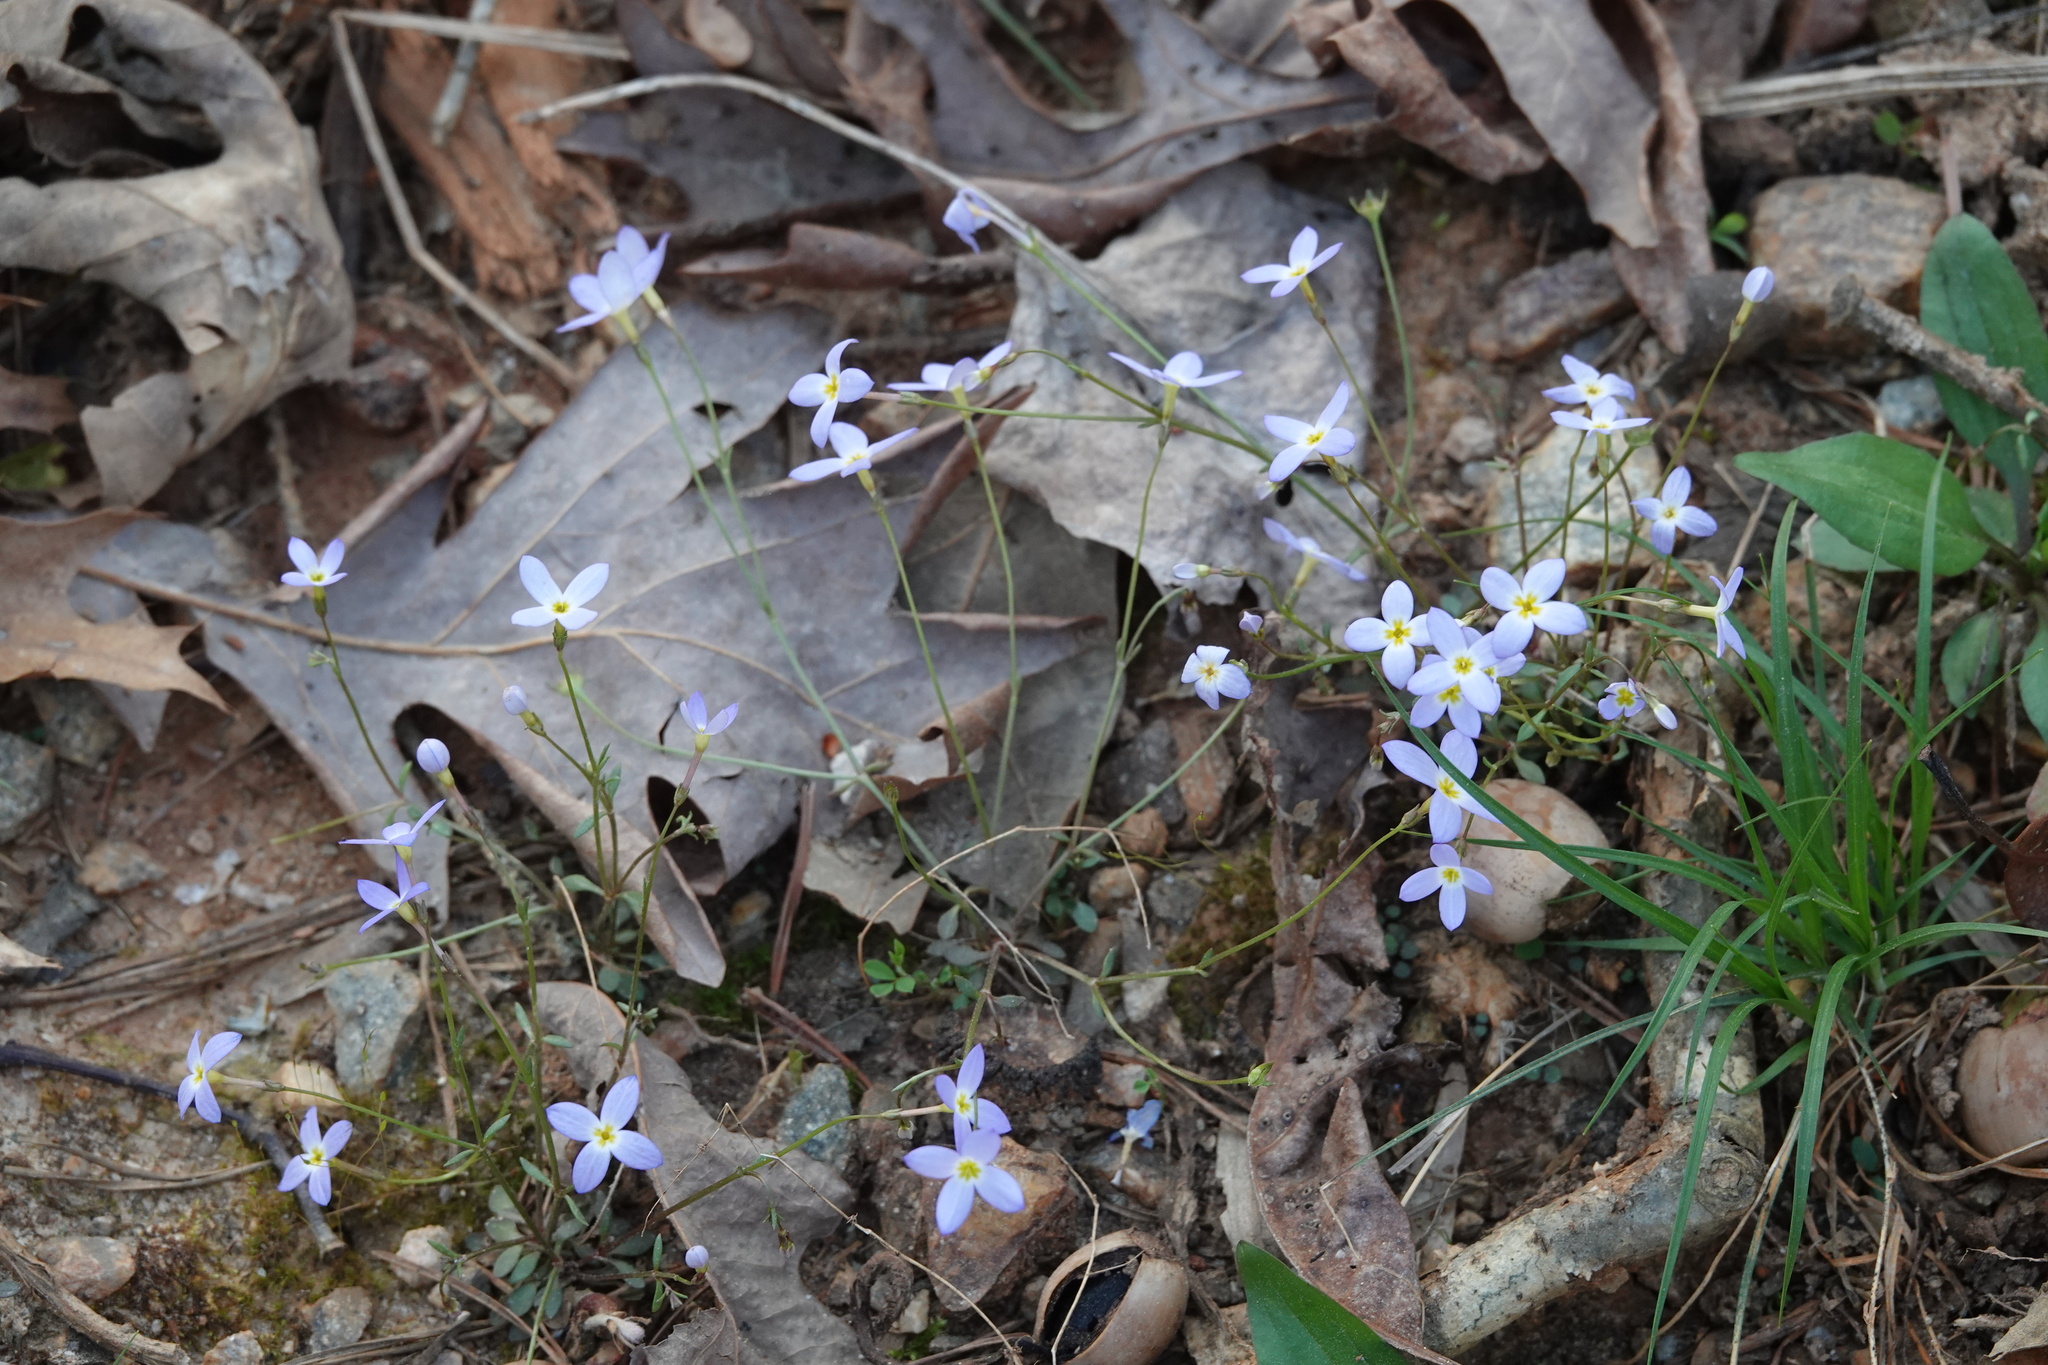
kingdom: Plantae
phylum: Tracheophyta
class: Magnoliopsida
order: Gentianales
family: Rubiaceae
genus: Houstonia
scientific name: Houstonia caerulea
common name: Bluets
